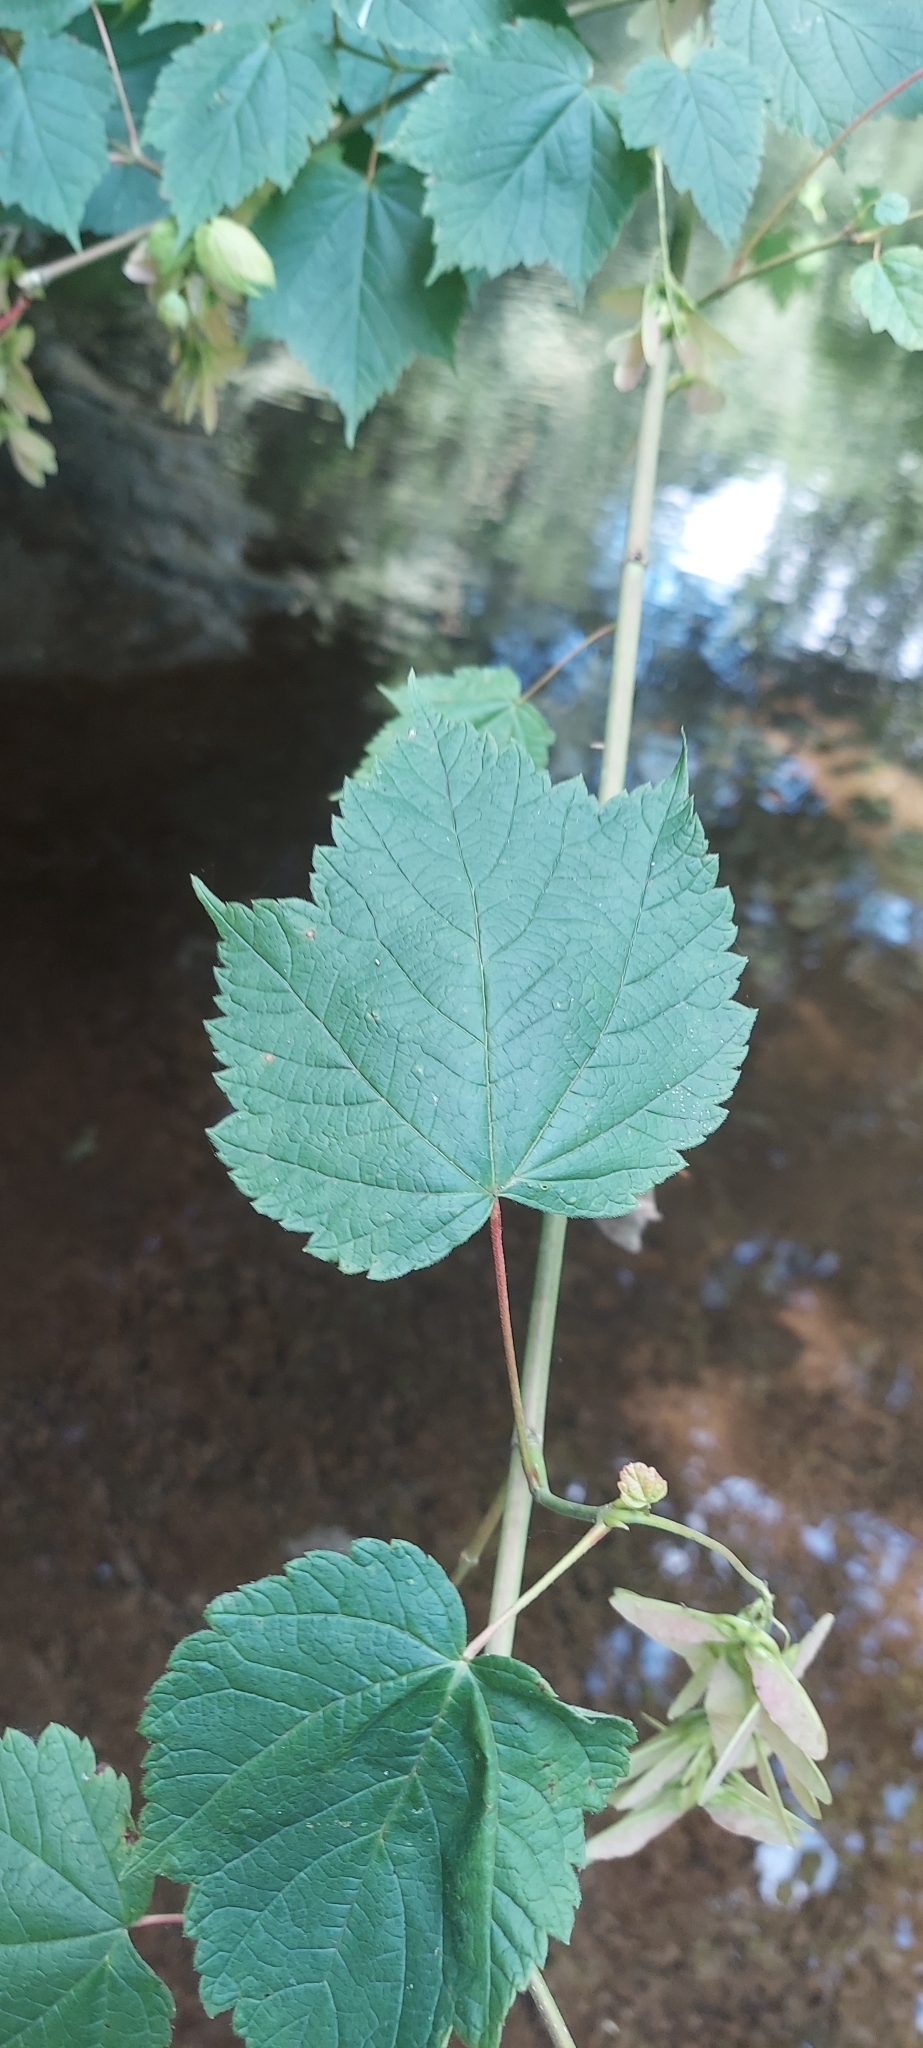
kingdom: Plantae
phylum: Tracheophyta
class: Magnoliopsida
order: Sapindales
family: Sapindaceae
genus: Acer
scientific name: Acer spicatum
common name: Mountain maple
